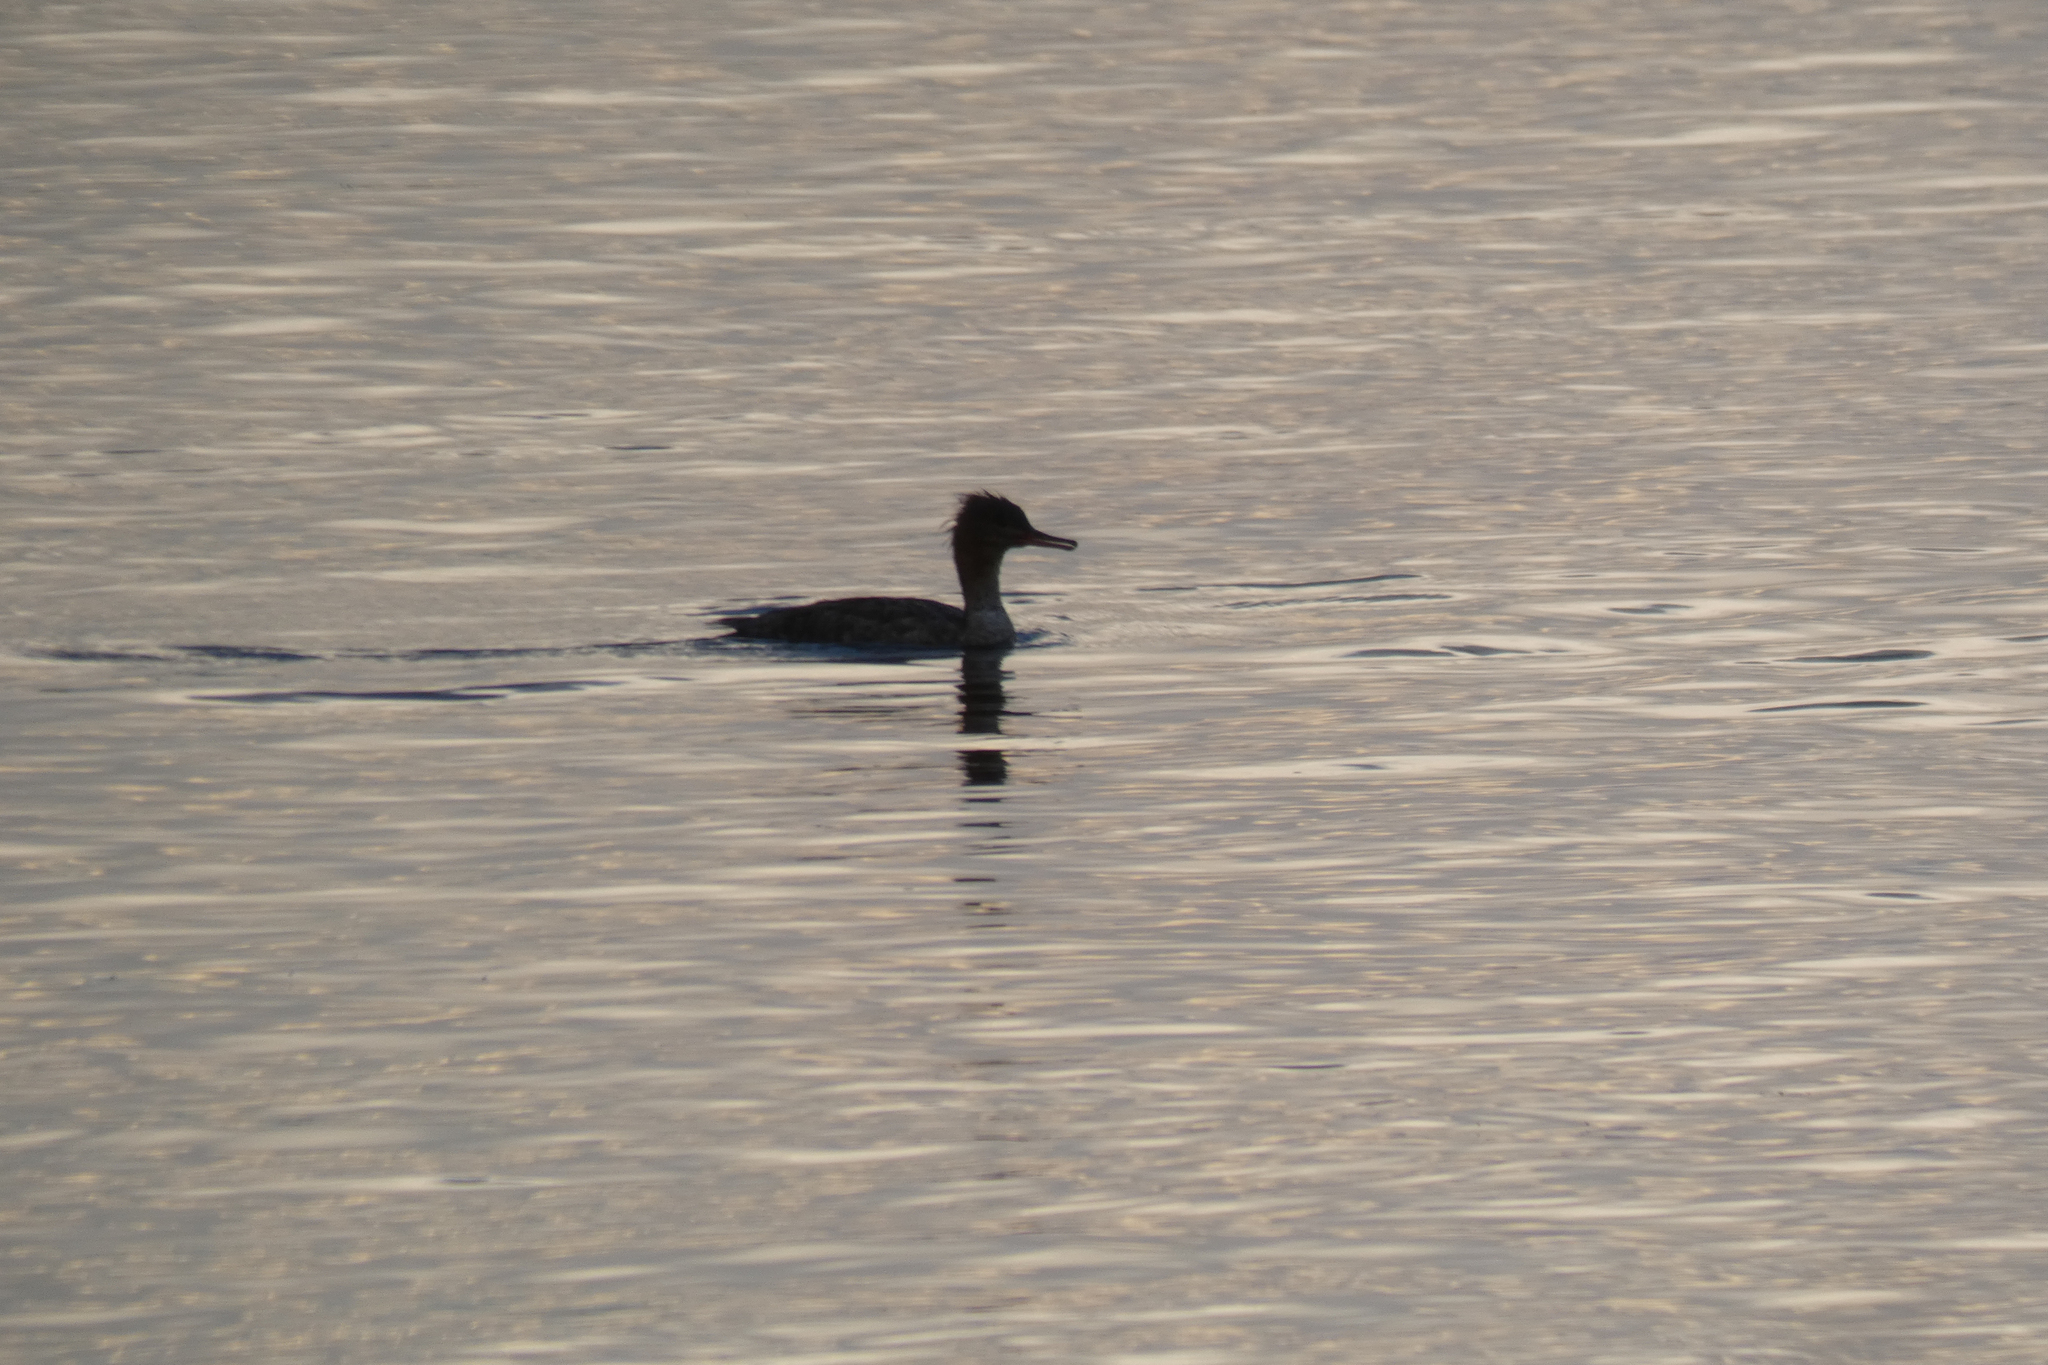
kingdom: Animalia
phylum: Chordata
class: Aves
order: Anseriformes
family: Anatidae
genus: Mergus
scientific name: Mergus serrator
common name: Red-breasted merganser
